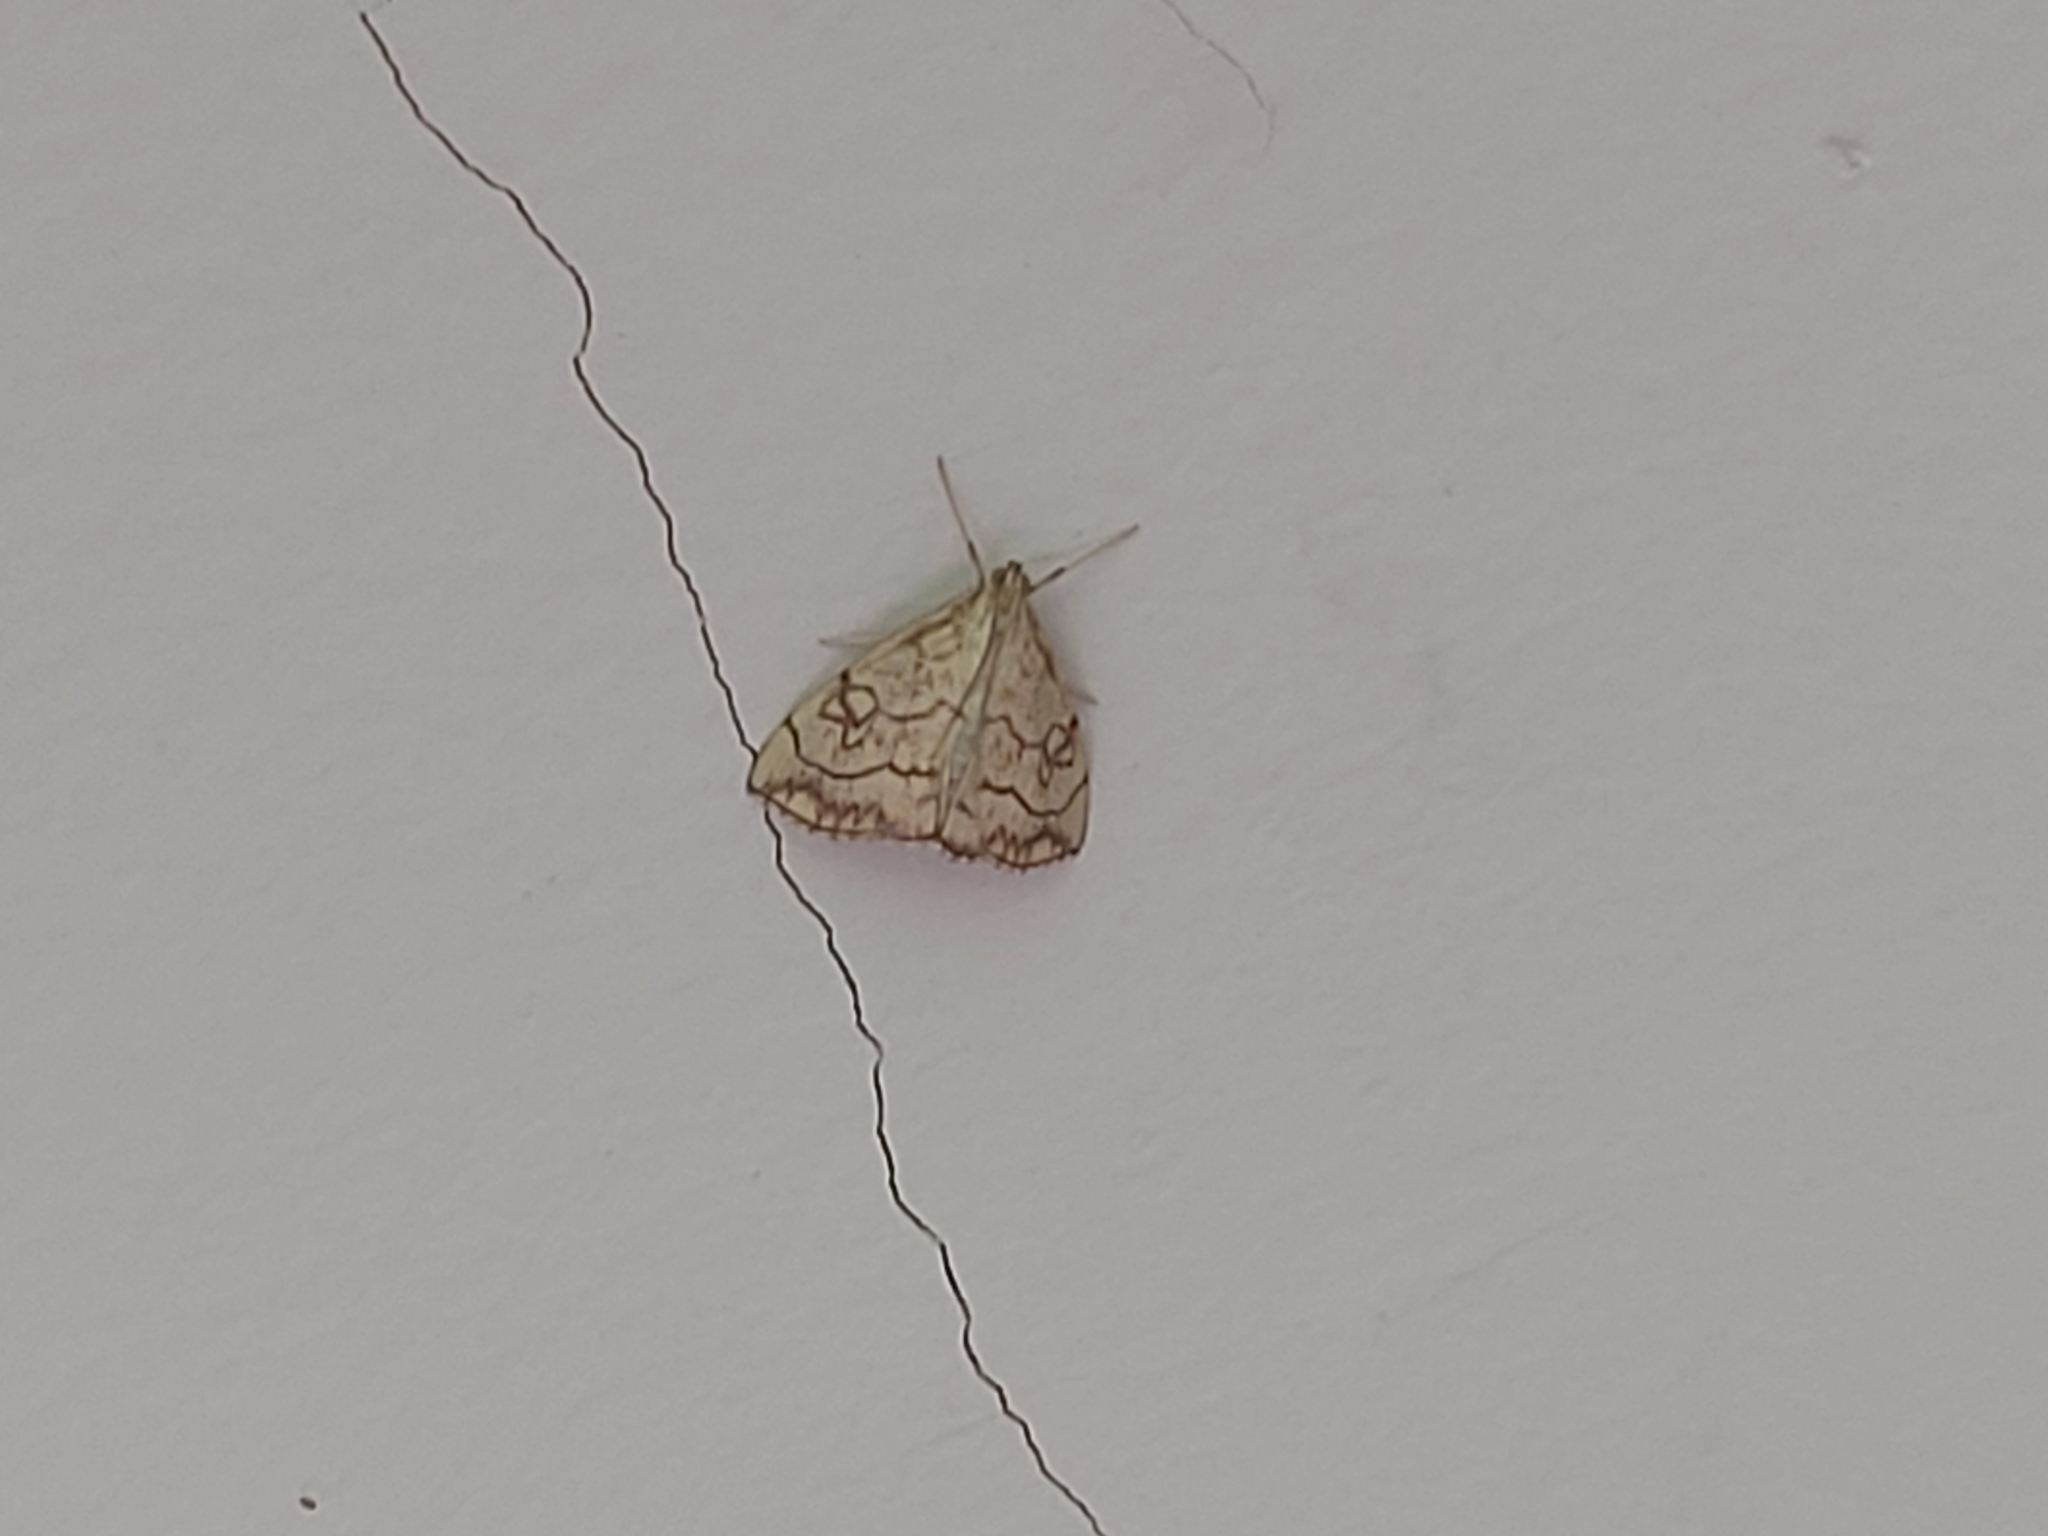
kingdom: Animalia
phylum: Arthropoda
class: Insecta
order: Lepidoptera
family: Crambidae
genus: Evergestis
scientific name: Evergestis pallidata
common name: Chequered pearl
